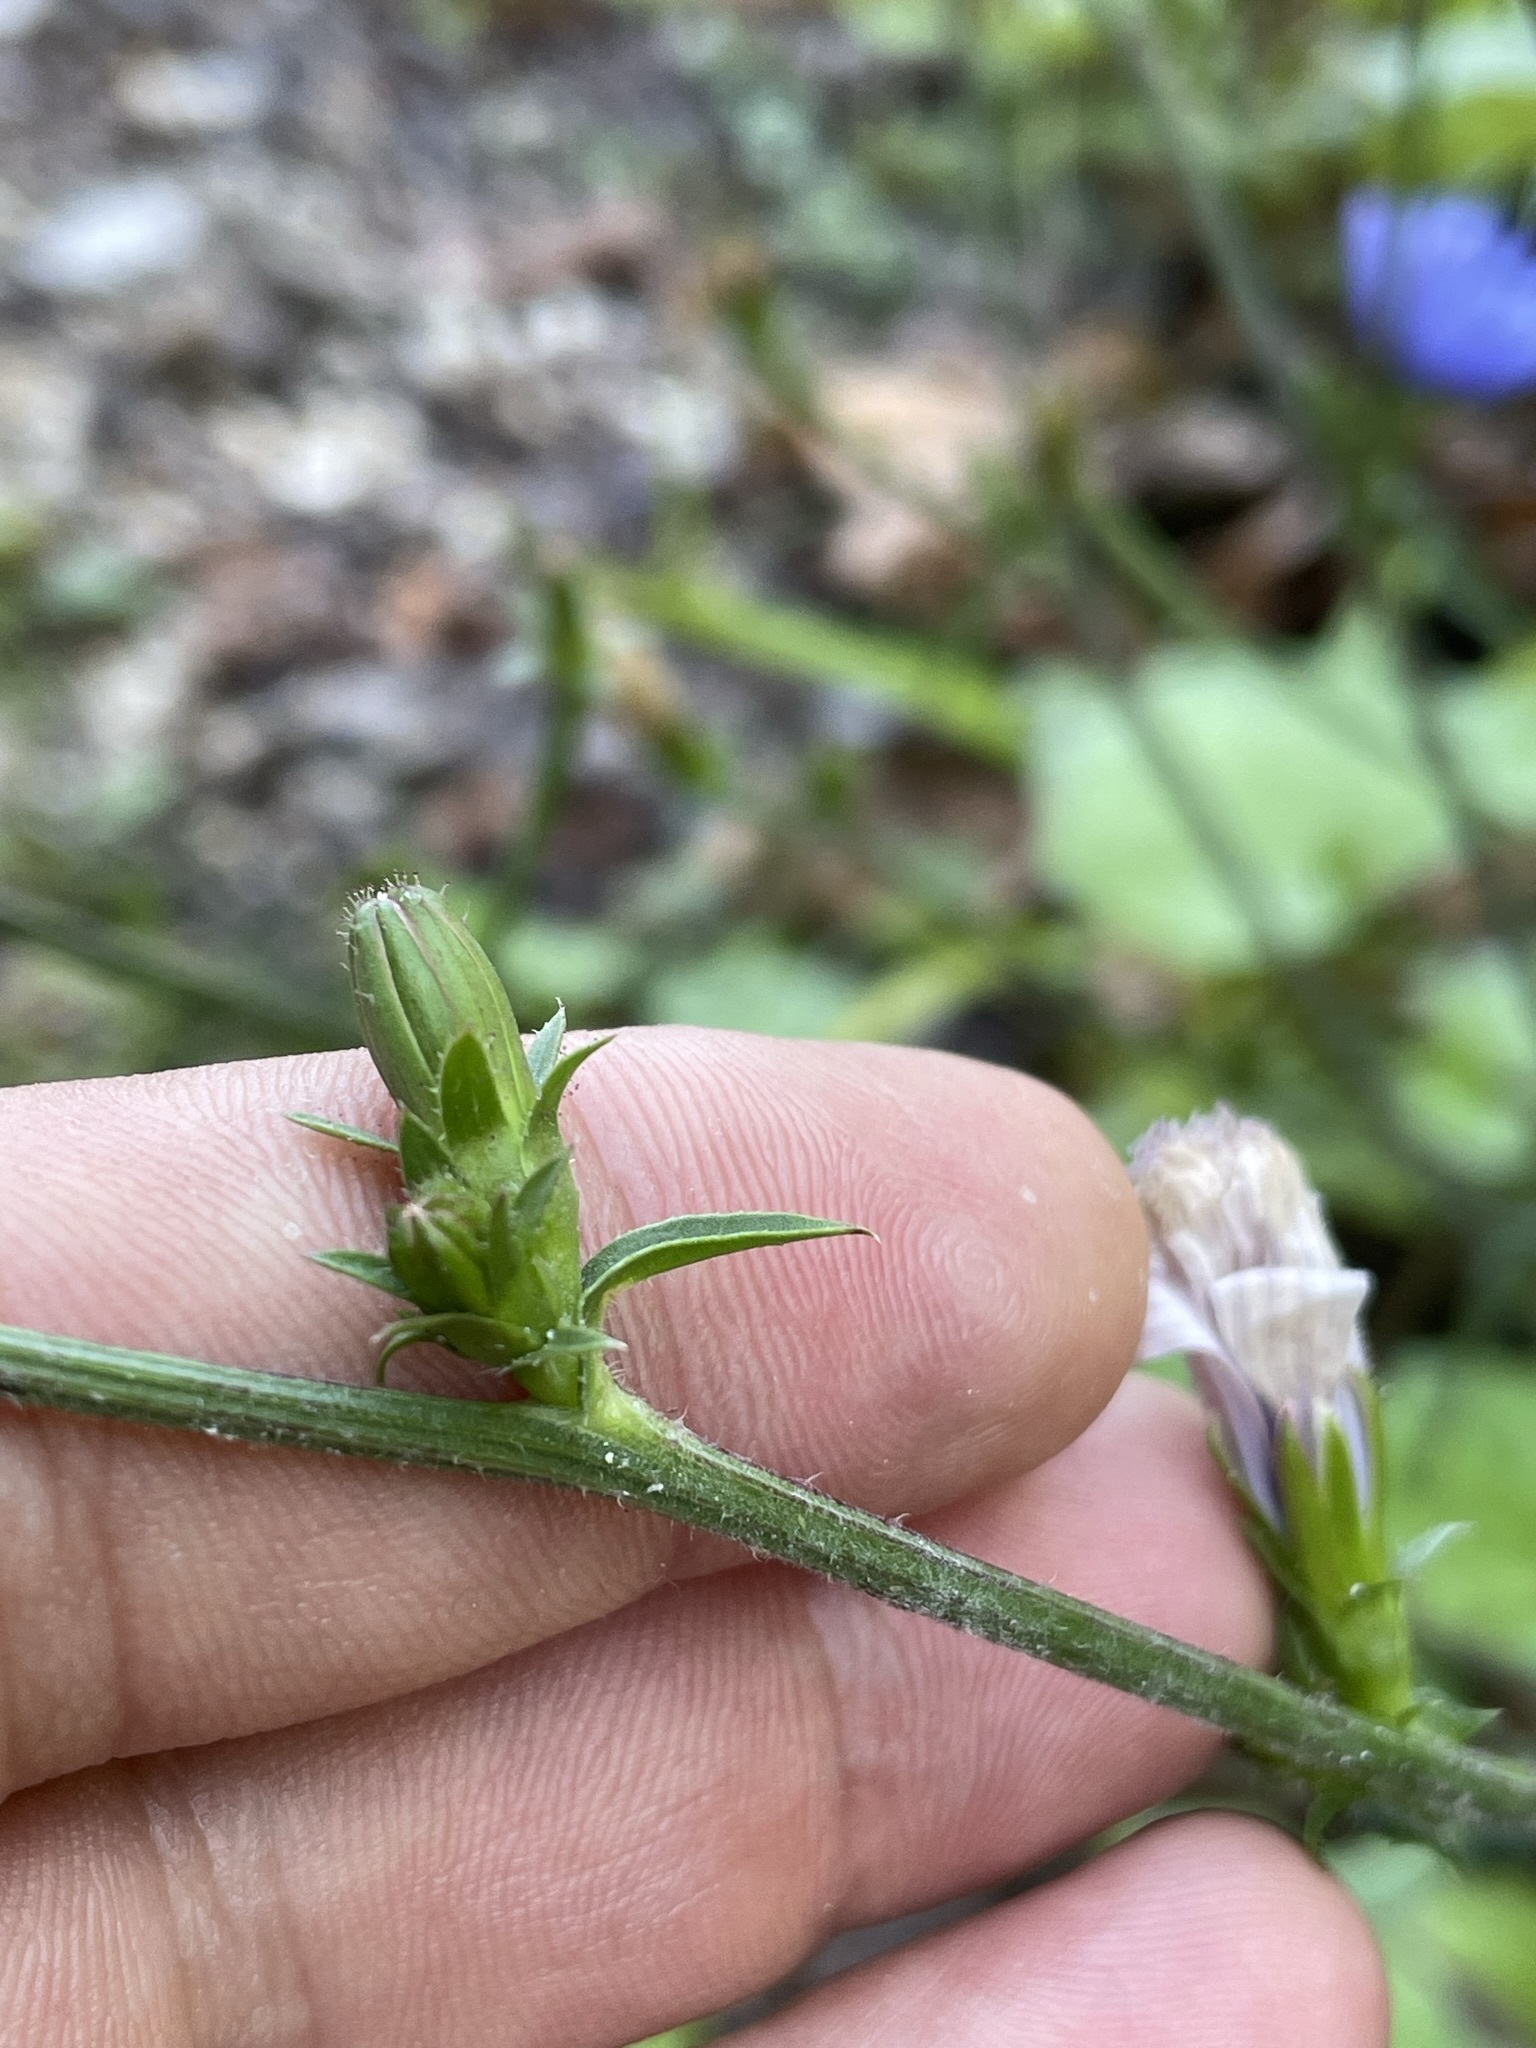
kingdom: Plantae
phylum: Tracheophyta
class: Magnoliopsida
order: Asterales
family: Asteraceae
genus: Cichorium
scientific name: Cichorium intybus
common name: Chicory
